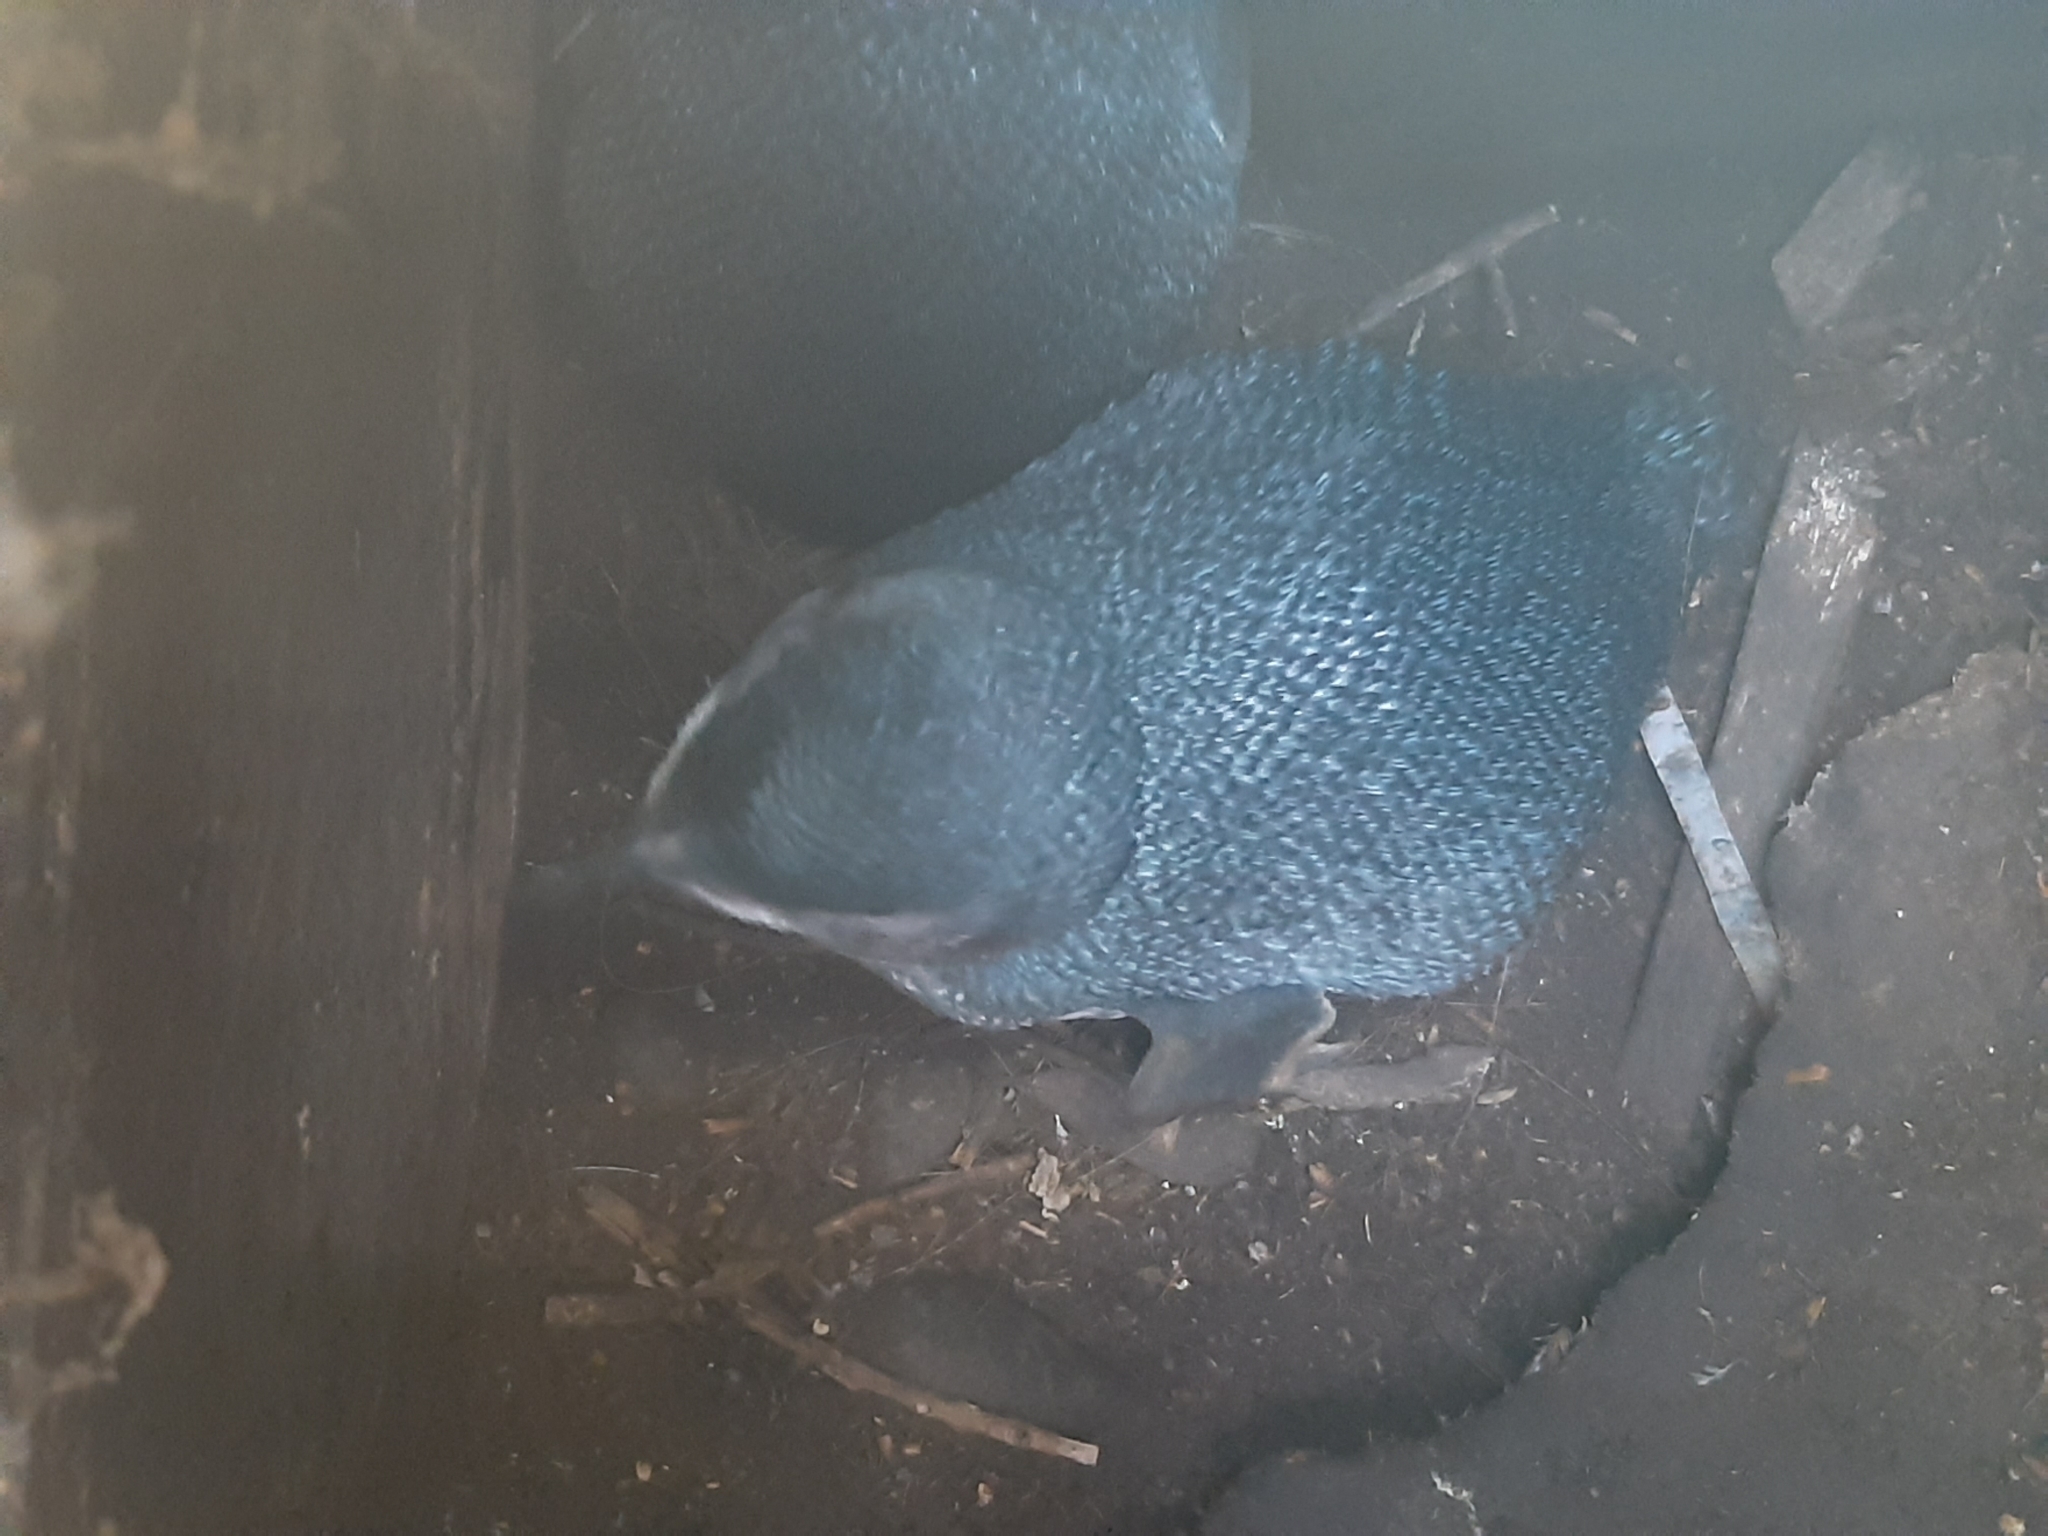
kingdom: Animalia
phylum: Chordata
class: Aves
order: Sphenisciformes
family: Spheniscidae
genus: Eudyptula
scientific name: Eudyptula minor
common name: Little penguin
